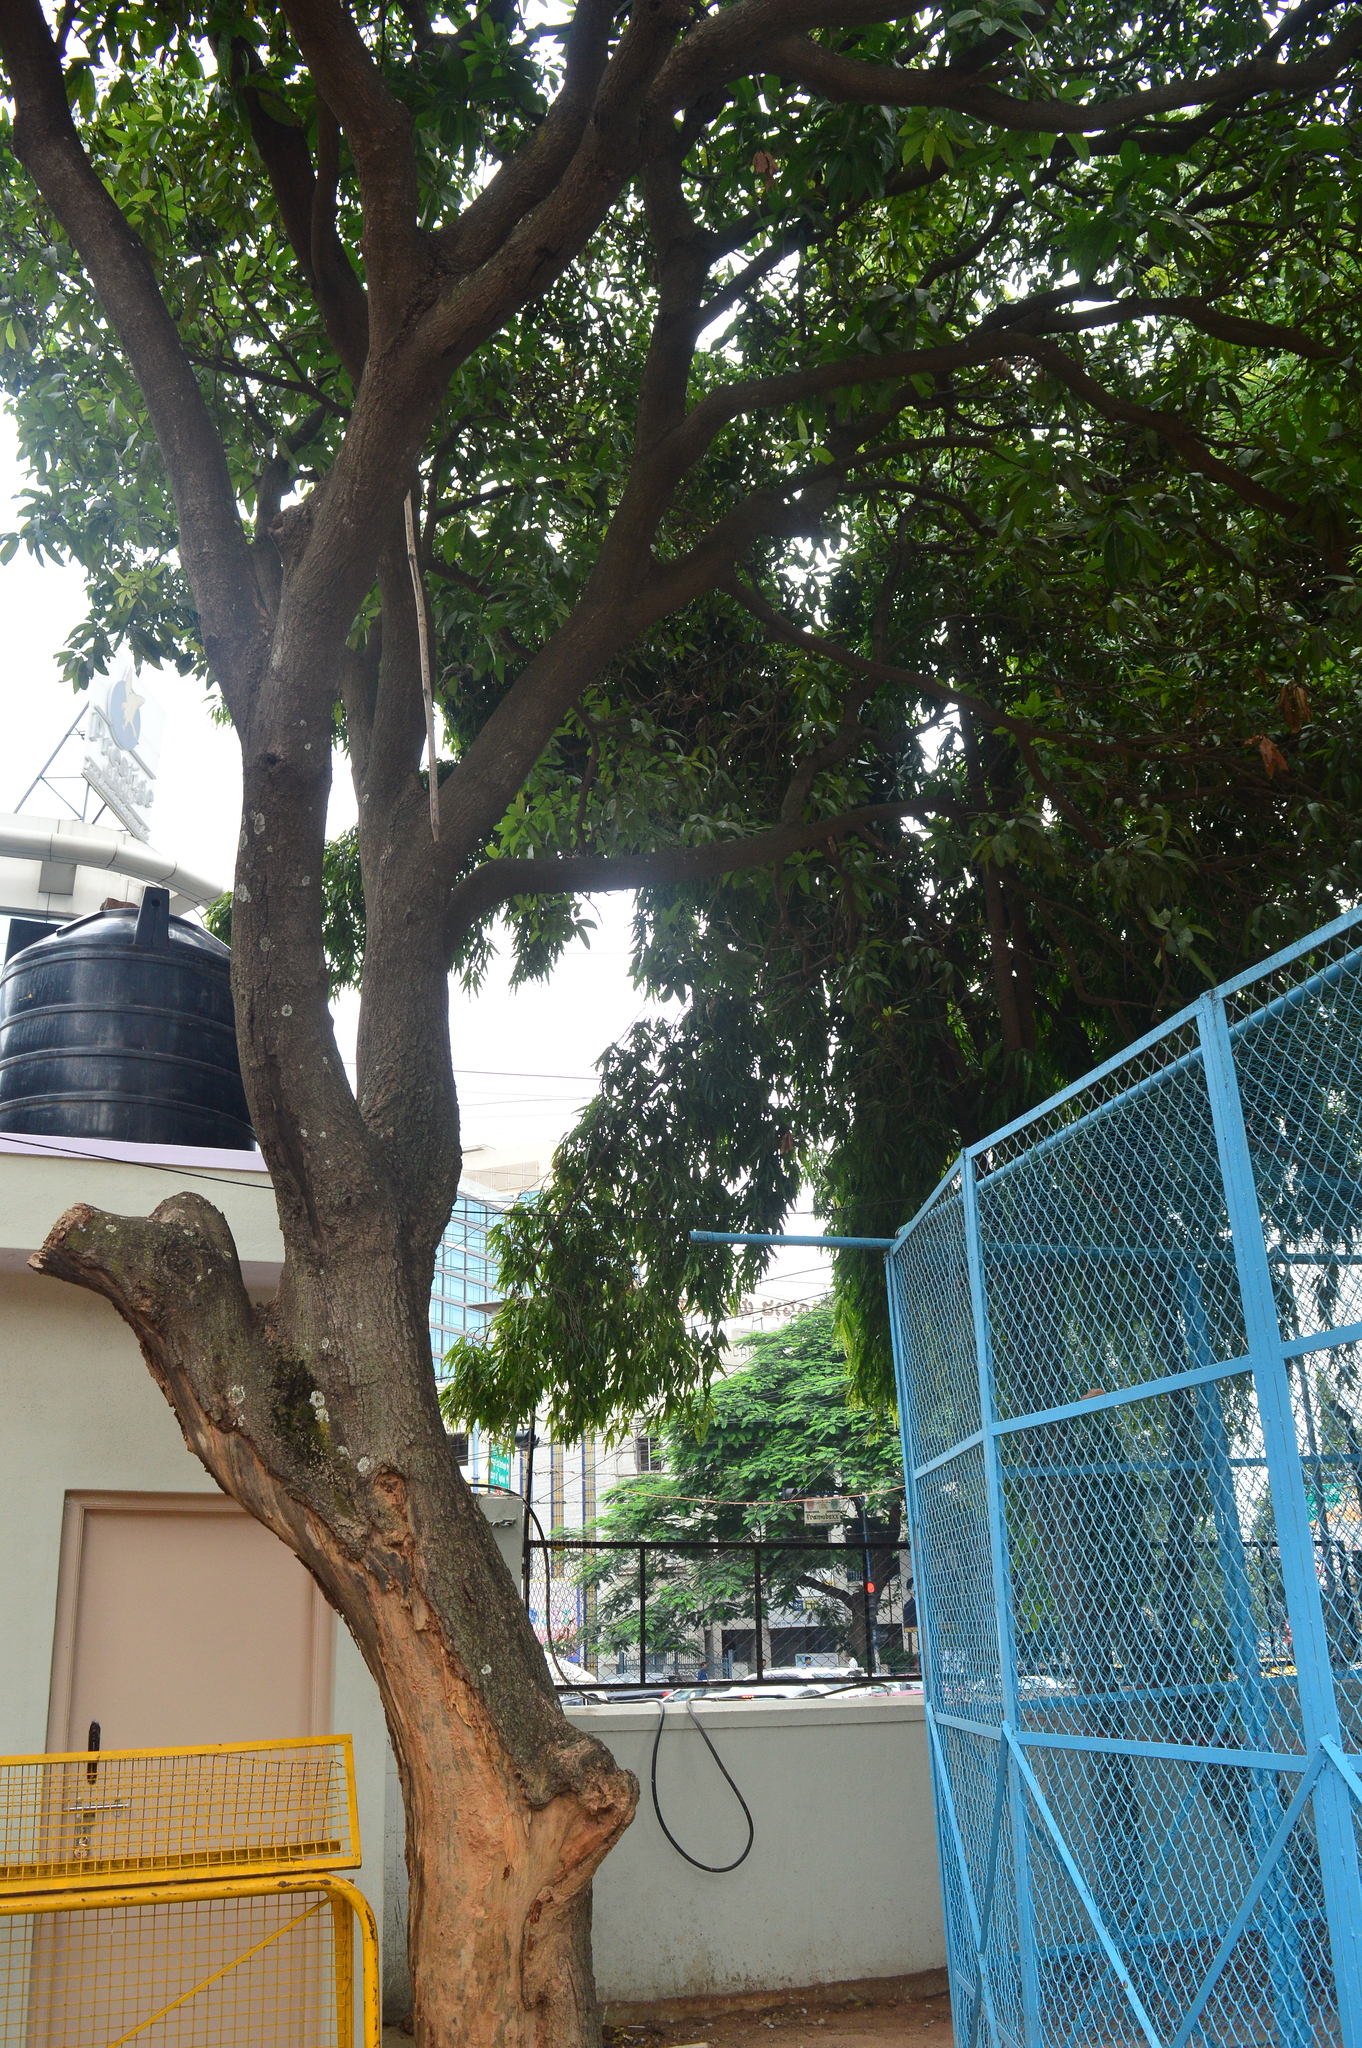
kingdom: Plantae
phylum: Tracheophyta
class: Magnoliopsida
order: Sapindales
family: Anacardiaceae
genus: Mangifera
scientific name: Mangifera indica
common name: Mango
